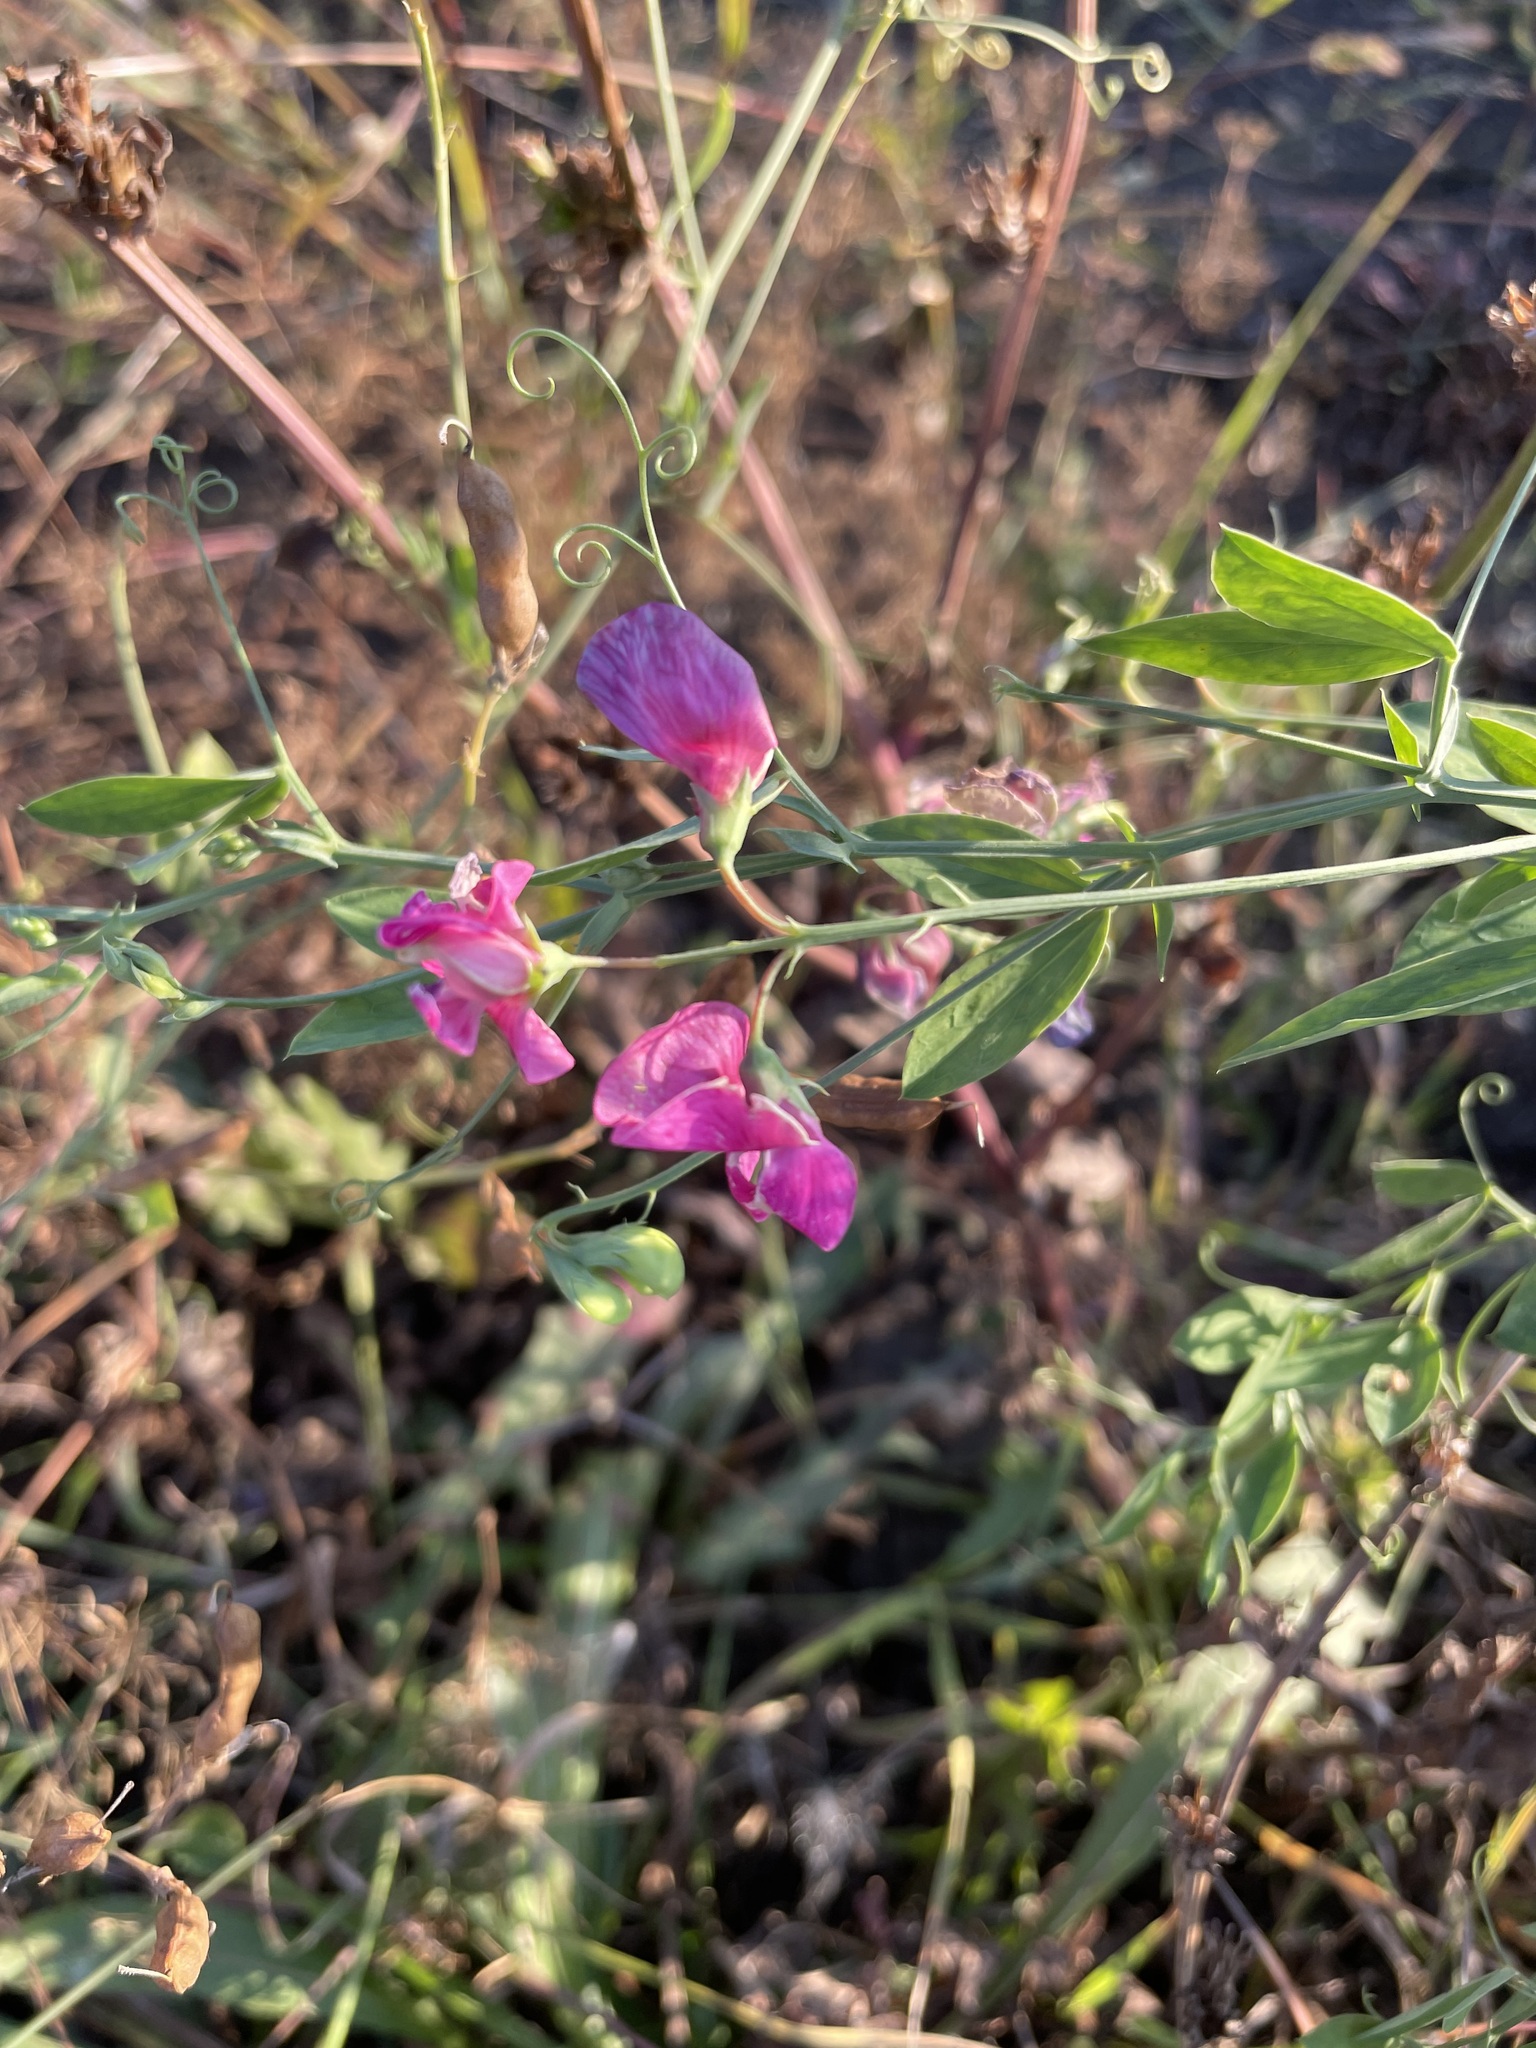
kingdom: Plantae
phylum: Tracheophyta
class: Magnoliopsida
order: Fabales
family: Fabaceae
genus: Lathyrus
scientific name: Lathyrus tuberosus
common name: Tuberous pea
